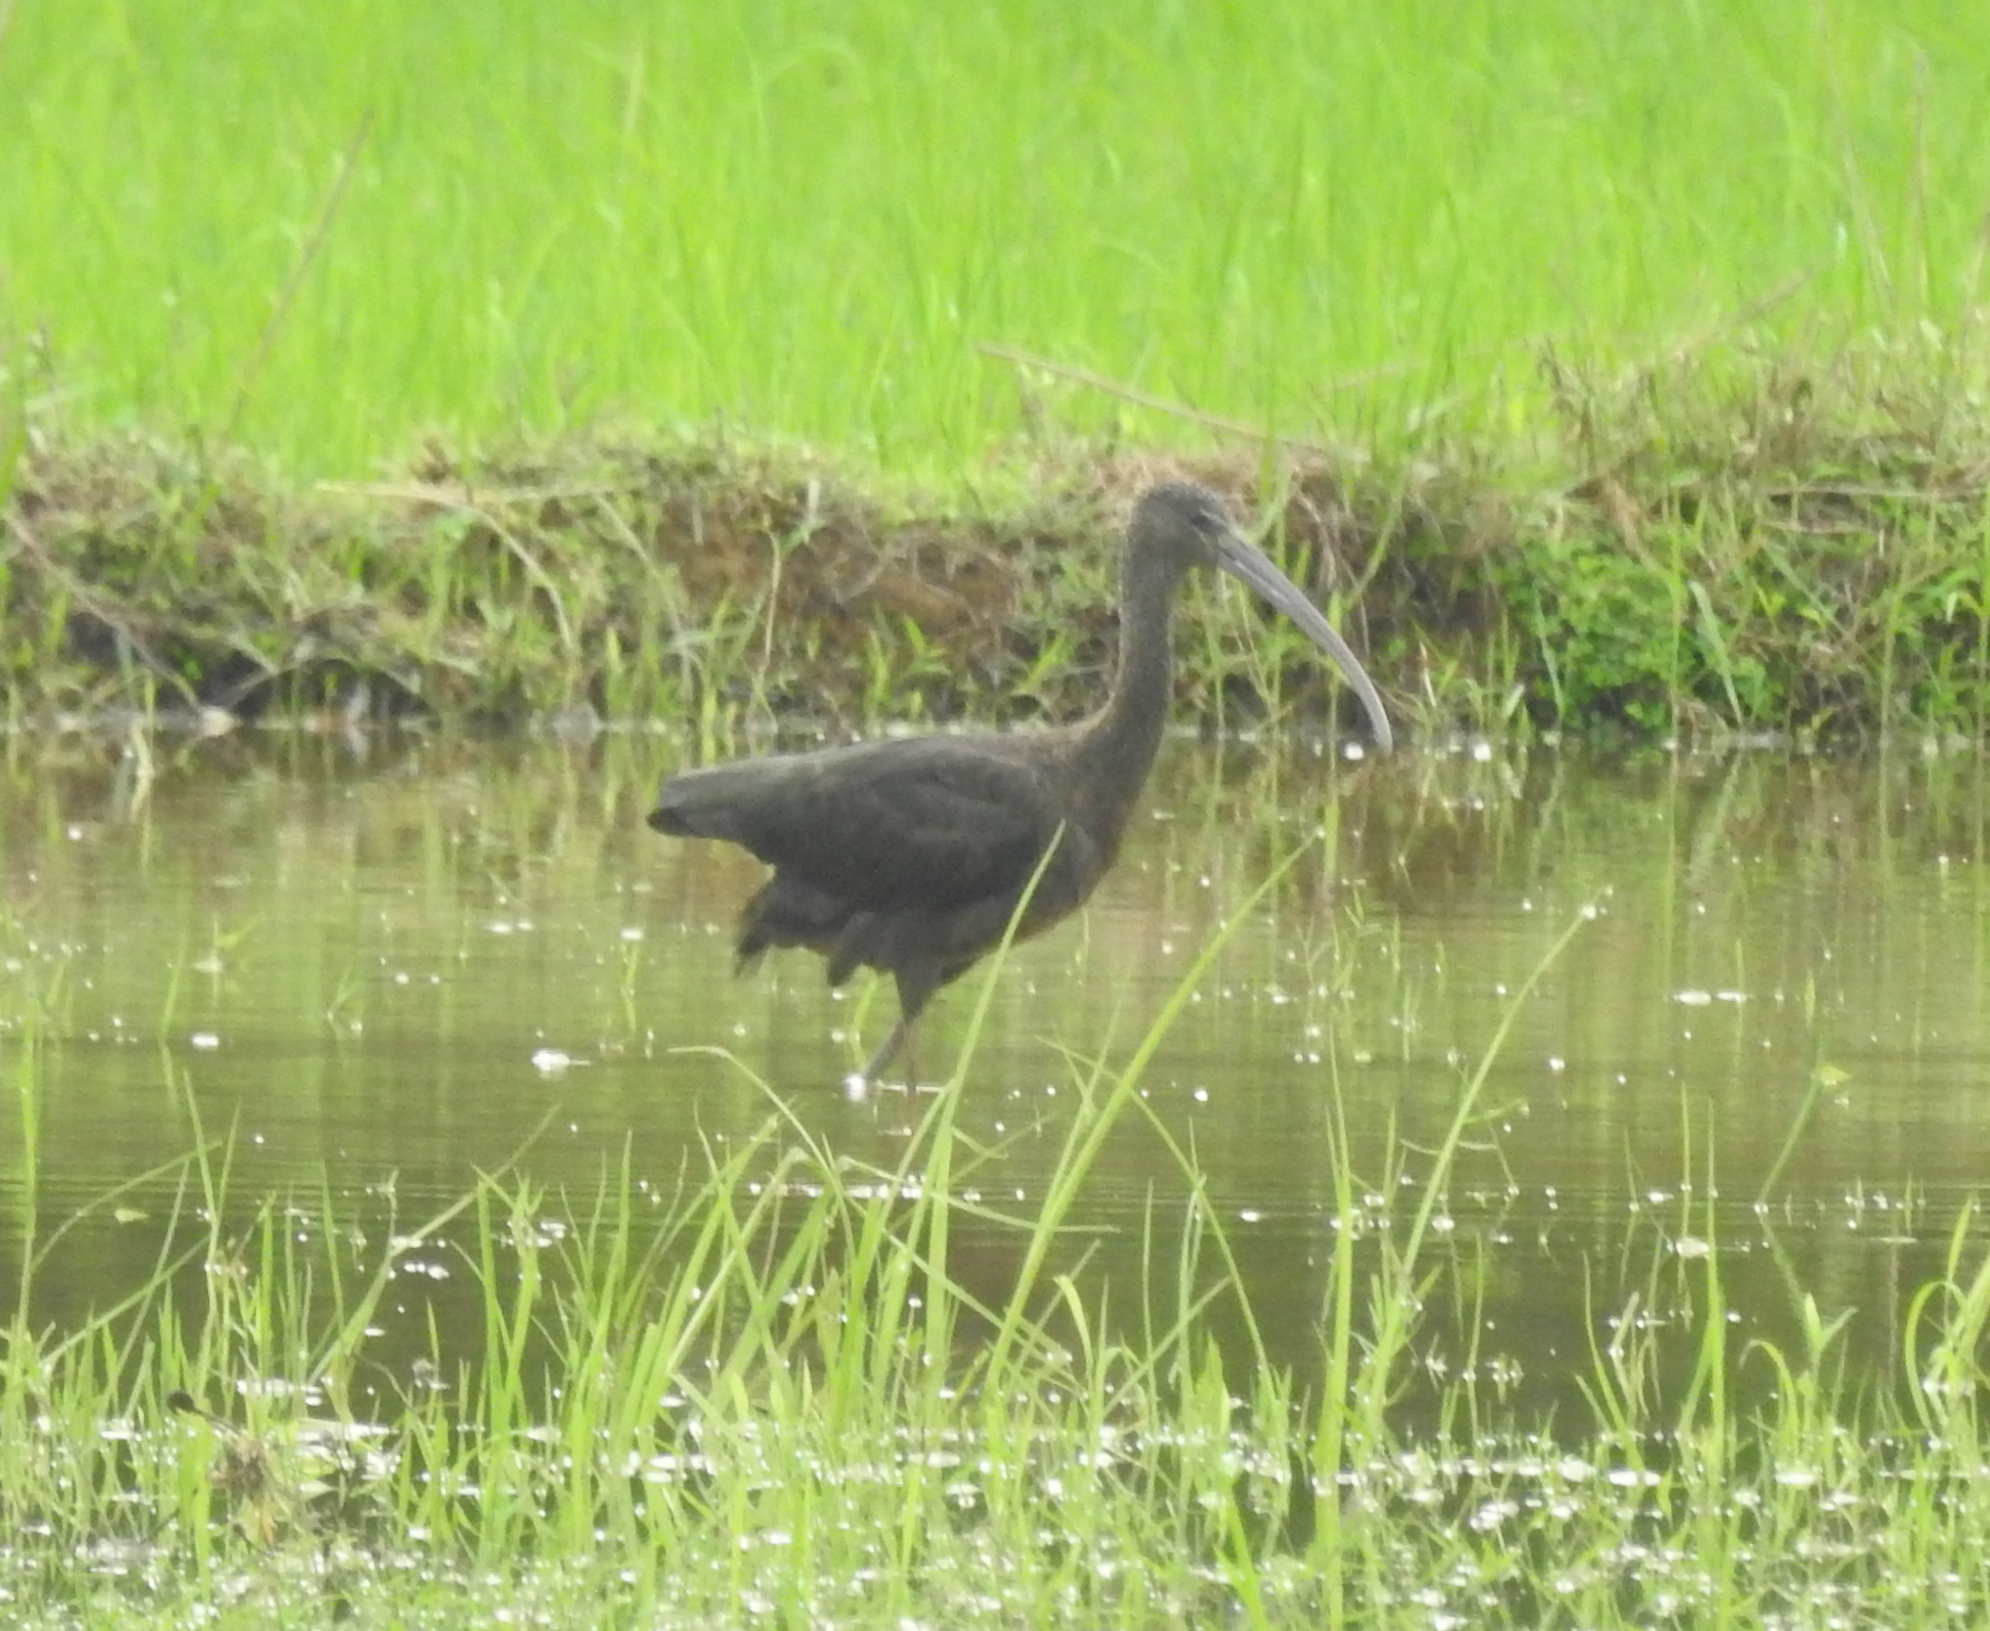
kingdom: Animalia
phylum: Chordata
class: Aves
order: Pelecaniformes
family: Threskiornithidae
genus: Plegadis
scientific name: Plegadis falcinellus
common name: Glossy ibis
